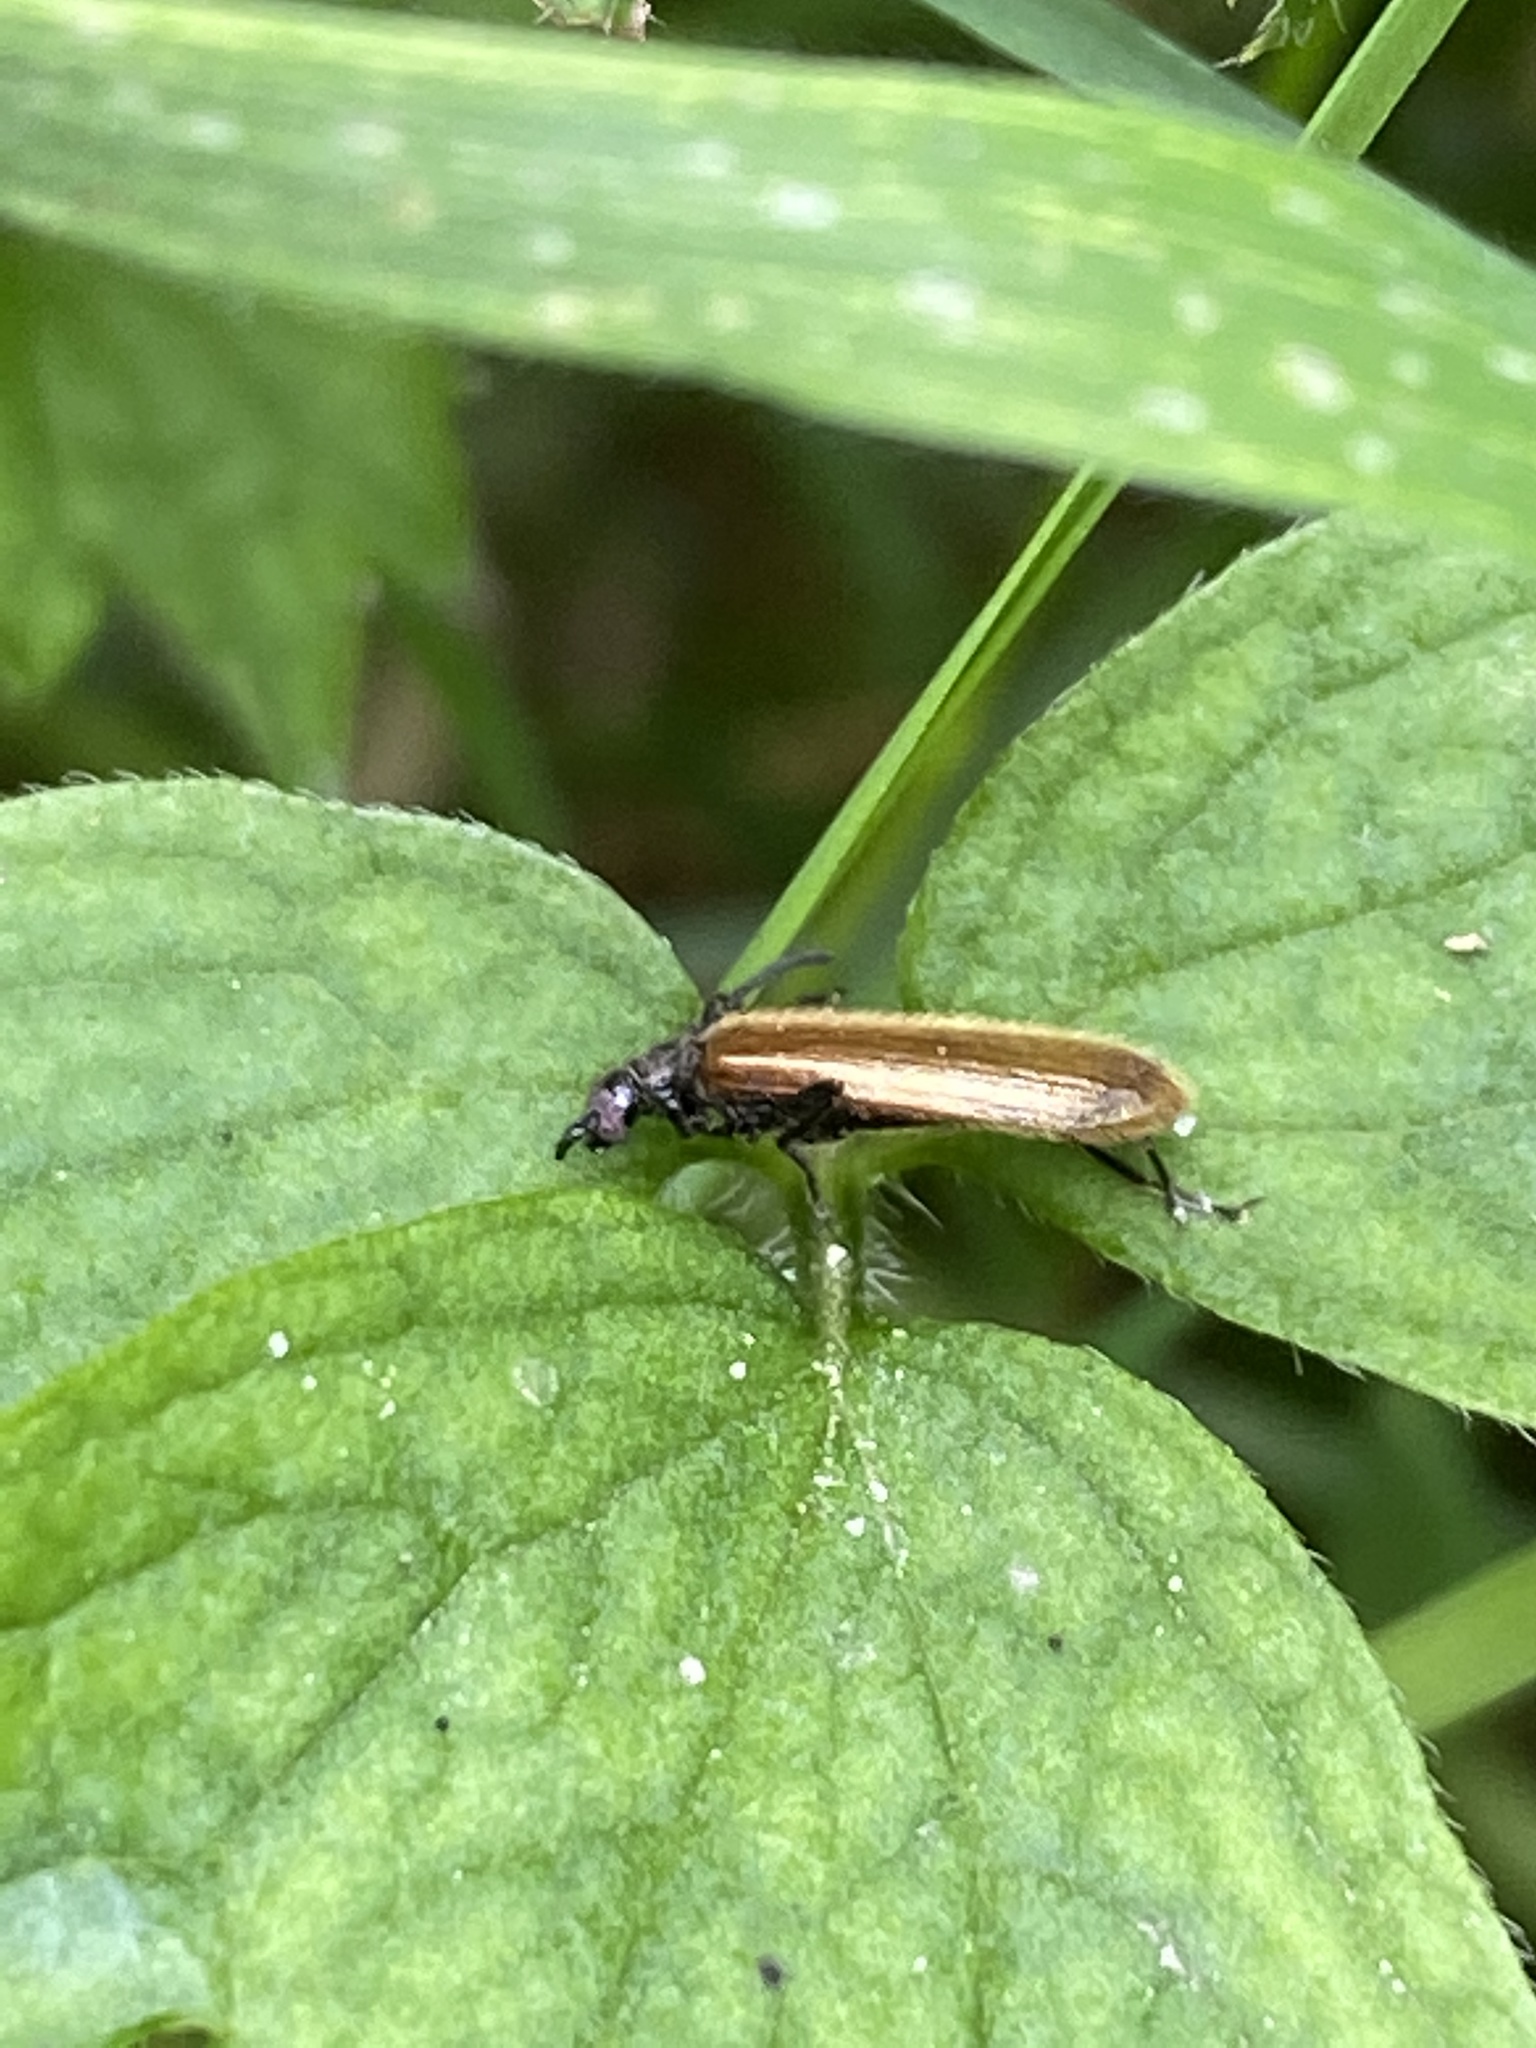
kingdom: Animalia
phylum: Arthropoda
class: Insecta
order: Coleoptera
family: Tenebrionidae
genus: Lagria
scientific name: Lagria hirta
